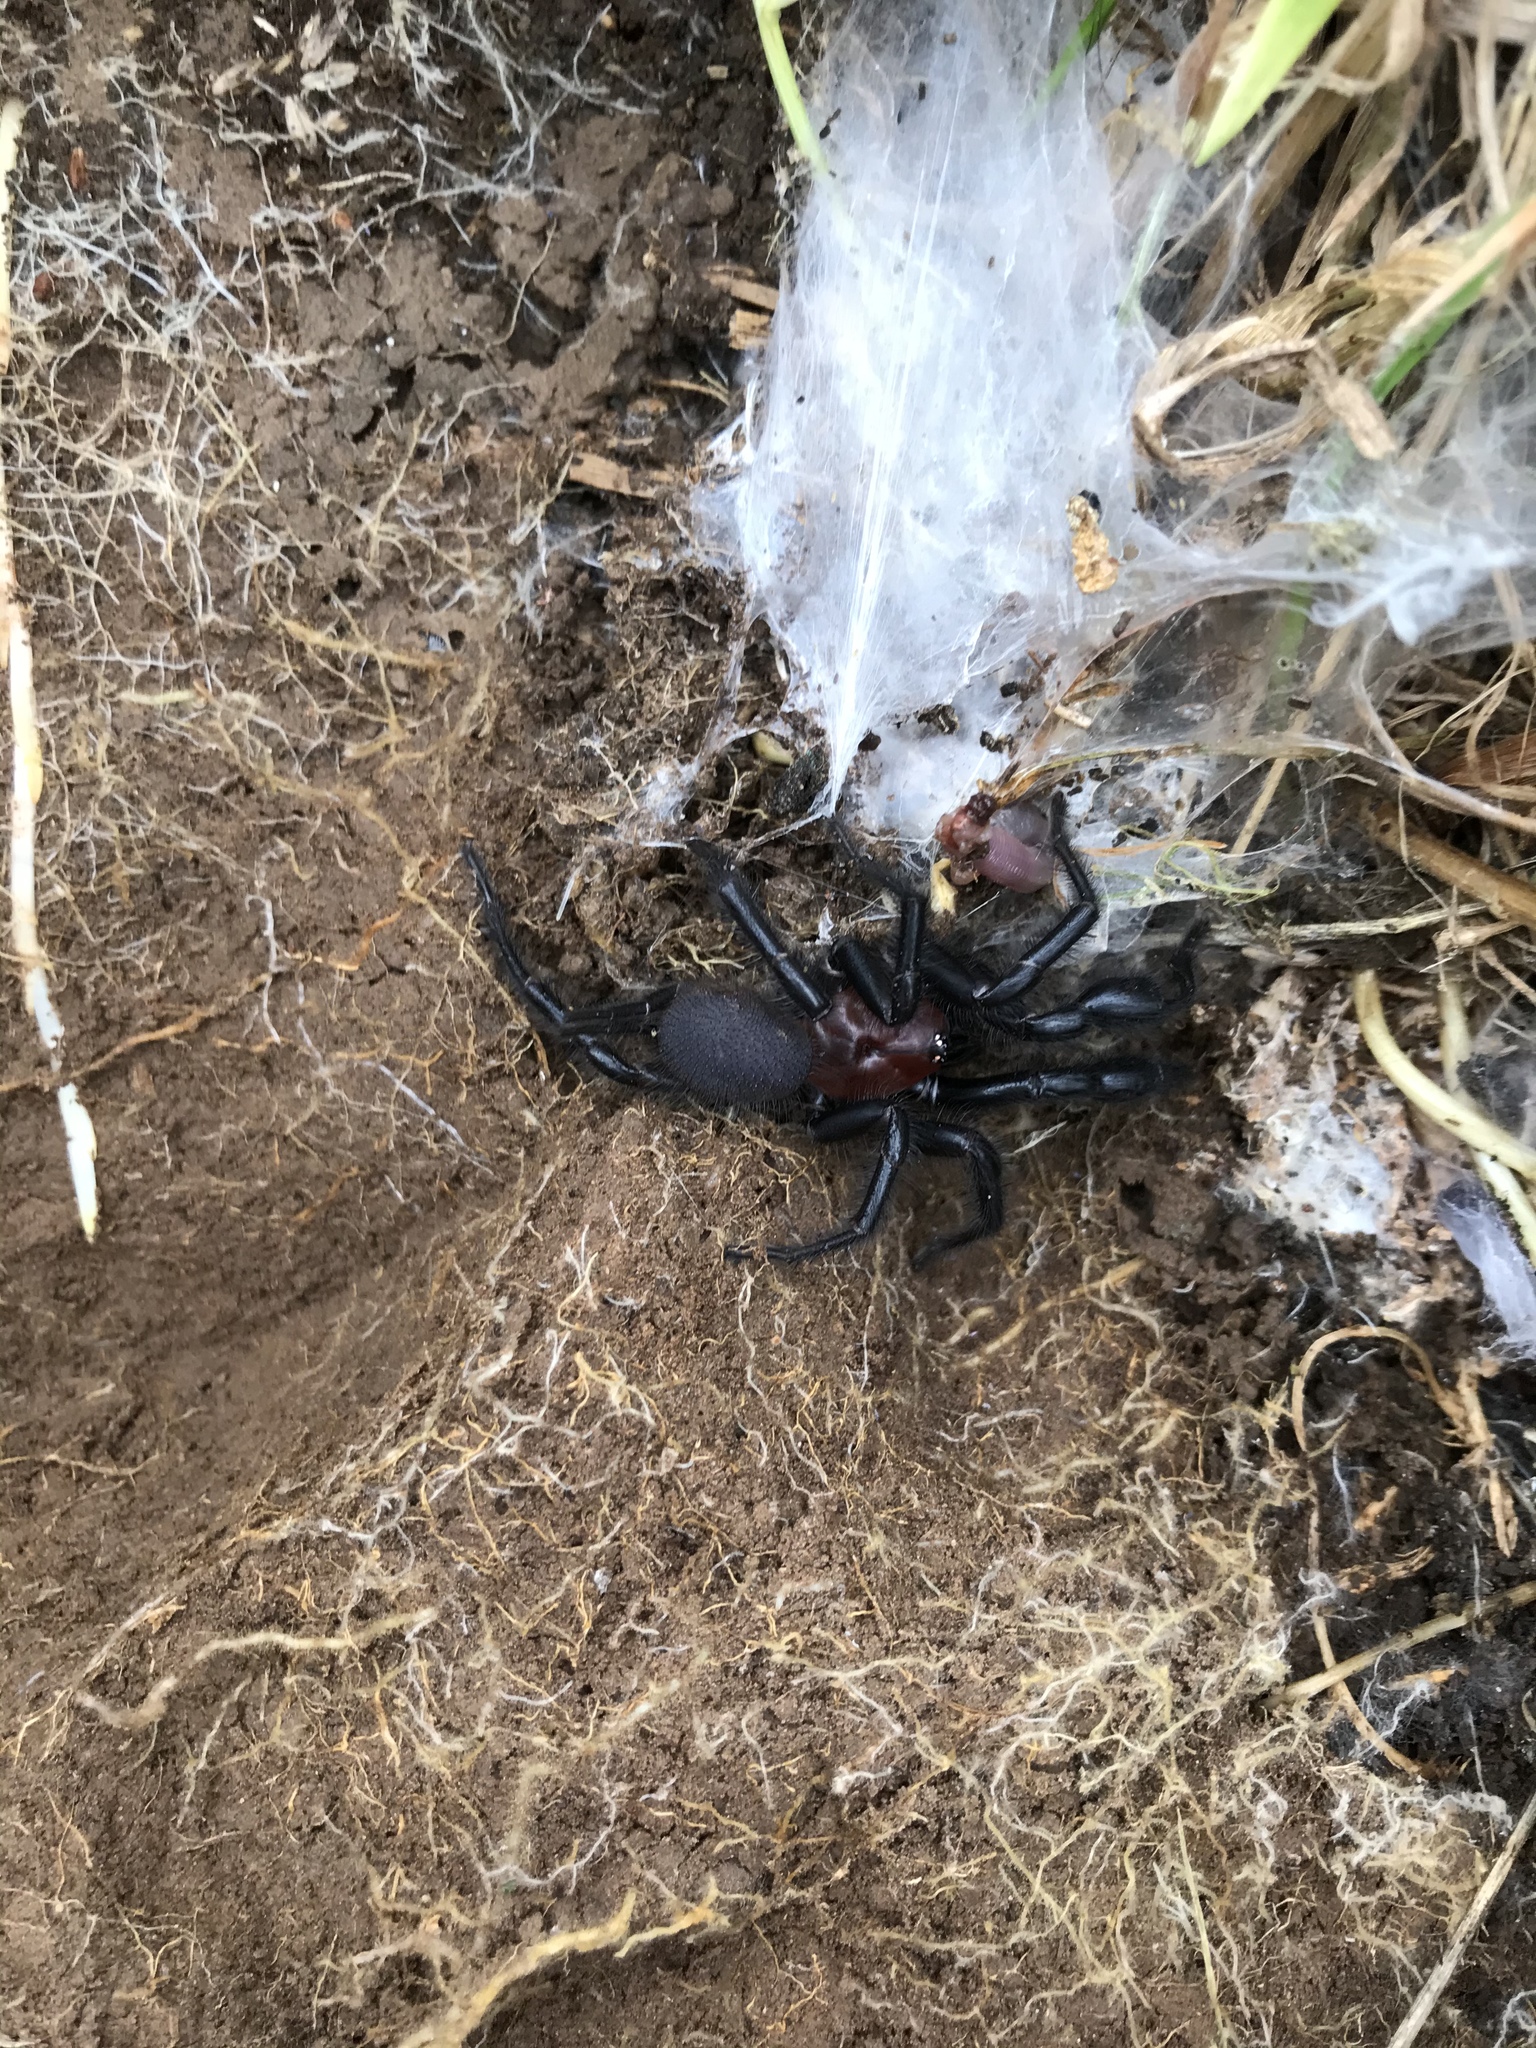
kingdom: Animalia
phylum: Arthropoda
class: Arachnida
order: Araneae
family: Porrhothelidae
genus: Porrhothele
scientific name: Porrhothele antipodiana
